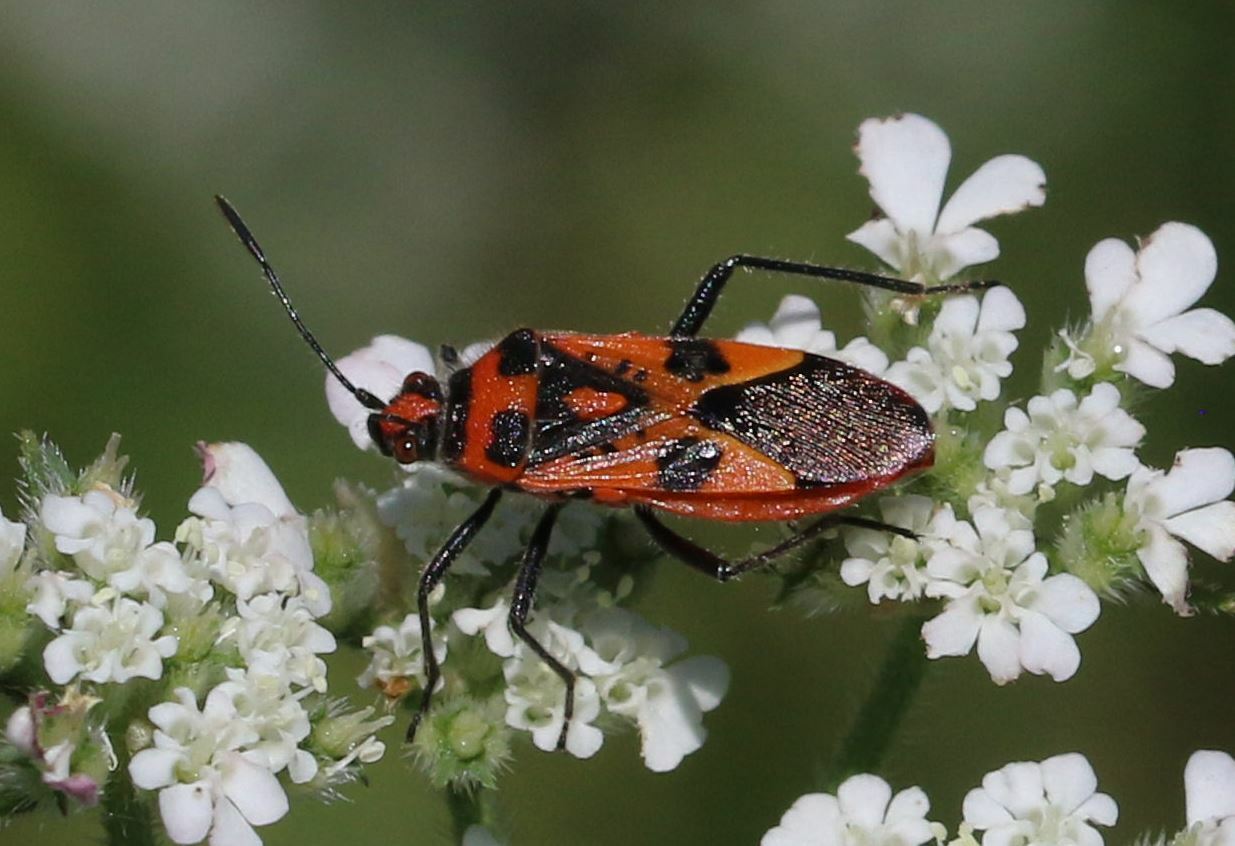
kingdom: Animalia
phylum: Arthropoda
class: Insecta
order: Hemiptera
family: Rhopalidae
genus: Corizus
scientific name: Corizus hyoscyami
